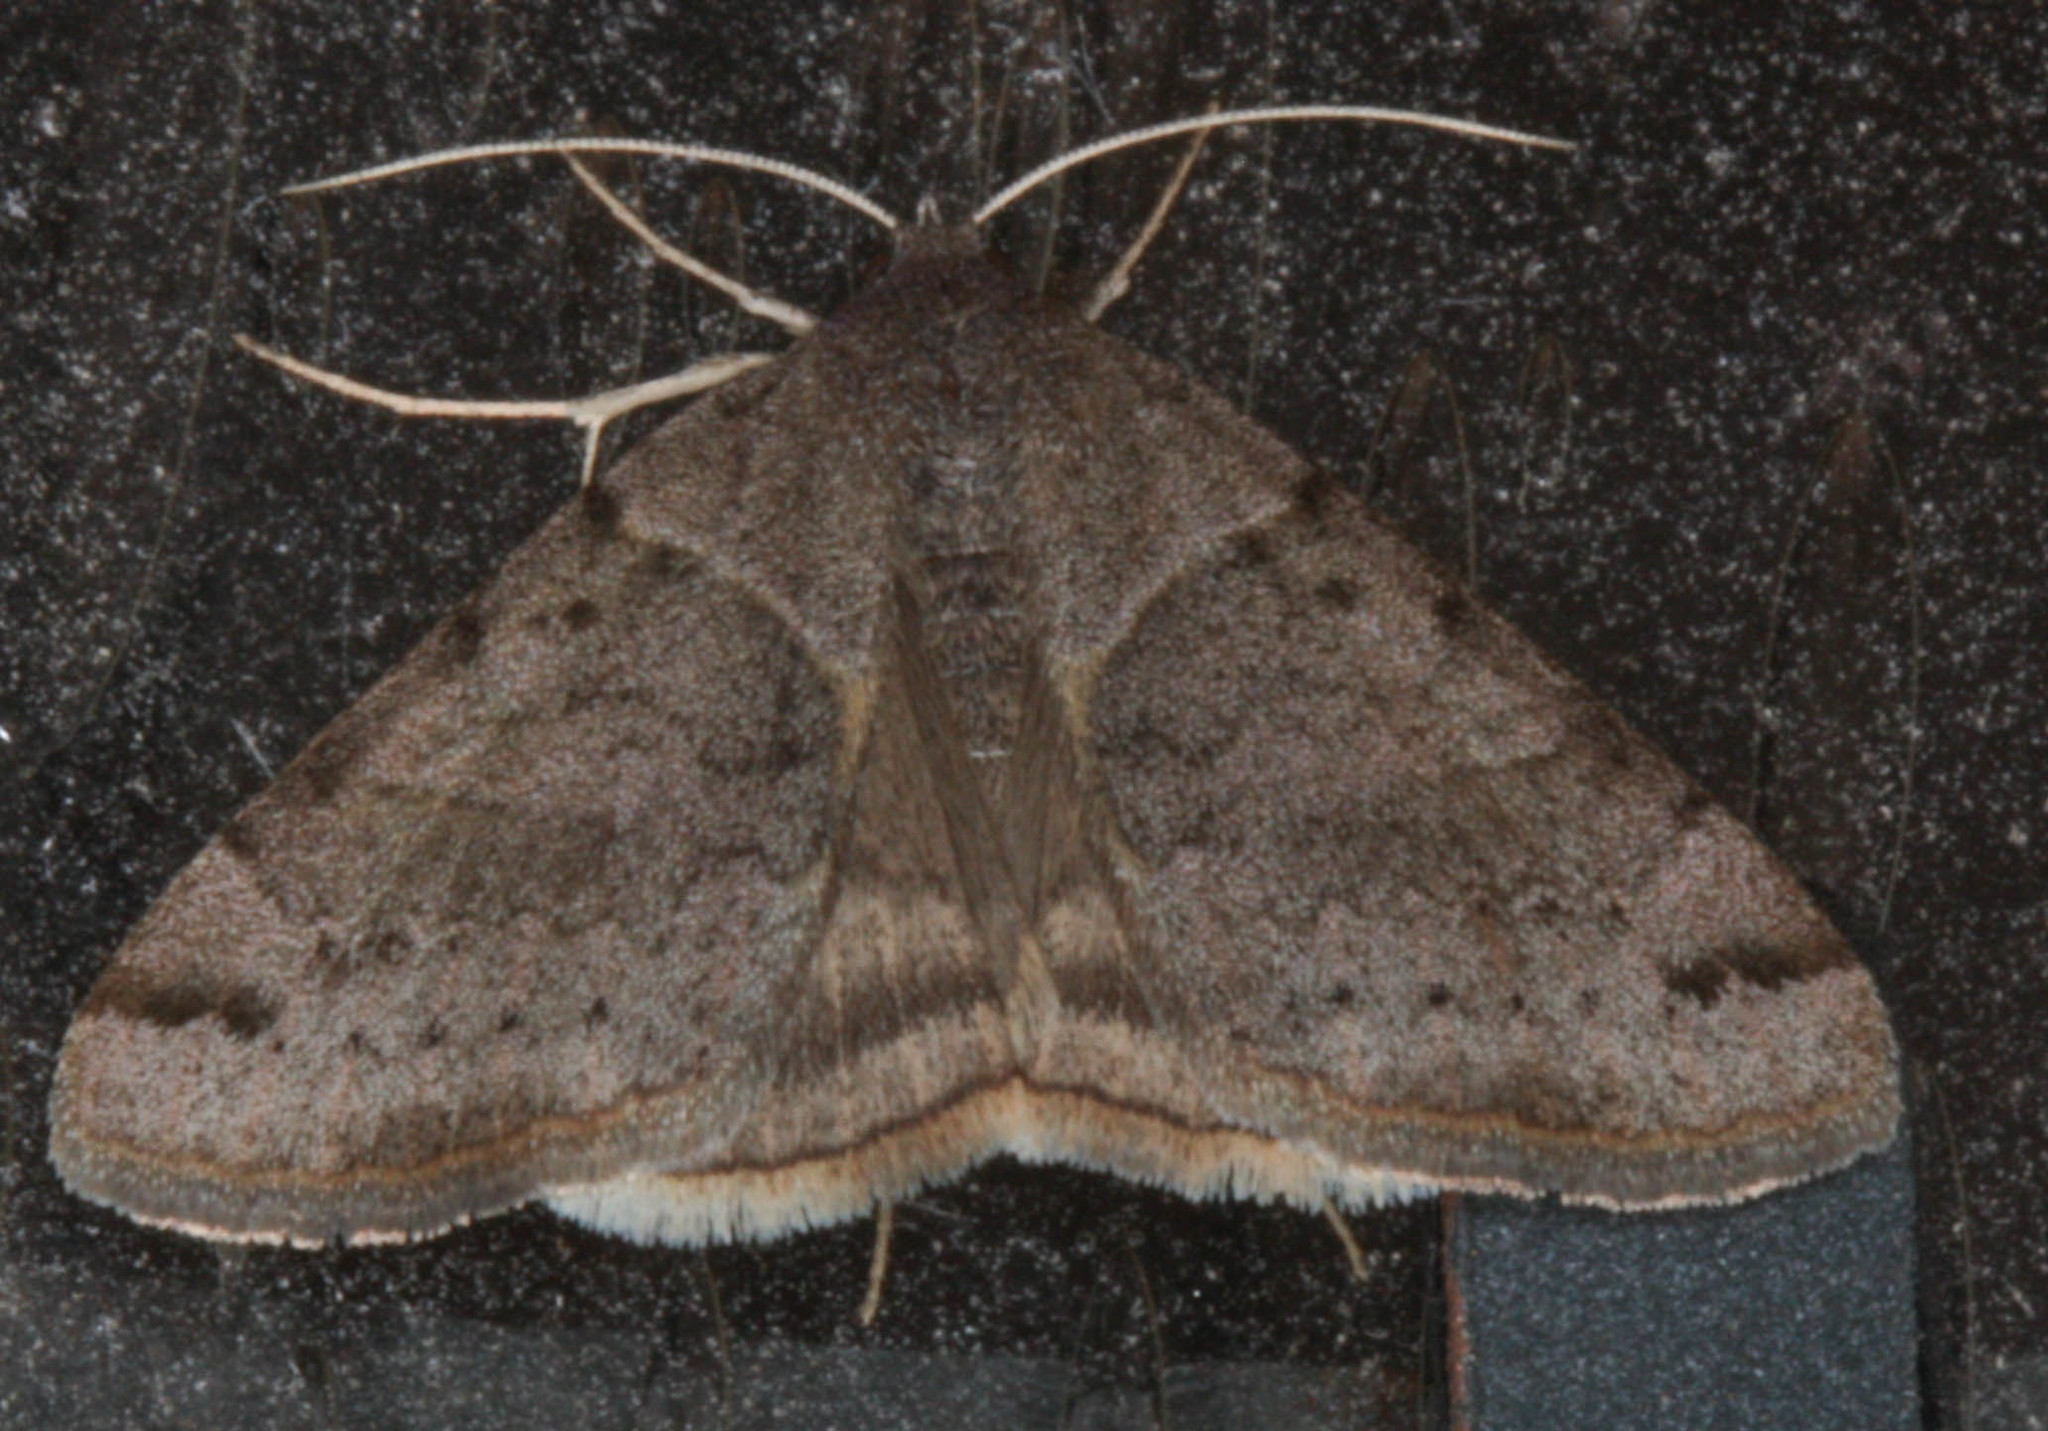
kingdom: Animalia
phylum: Arthropoda
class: Insecta
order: Lepidoptera
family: Erebidae
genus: Caenurgina
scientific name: Caenurgina erechtea
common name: Forage looper moth
